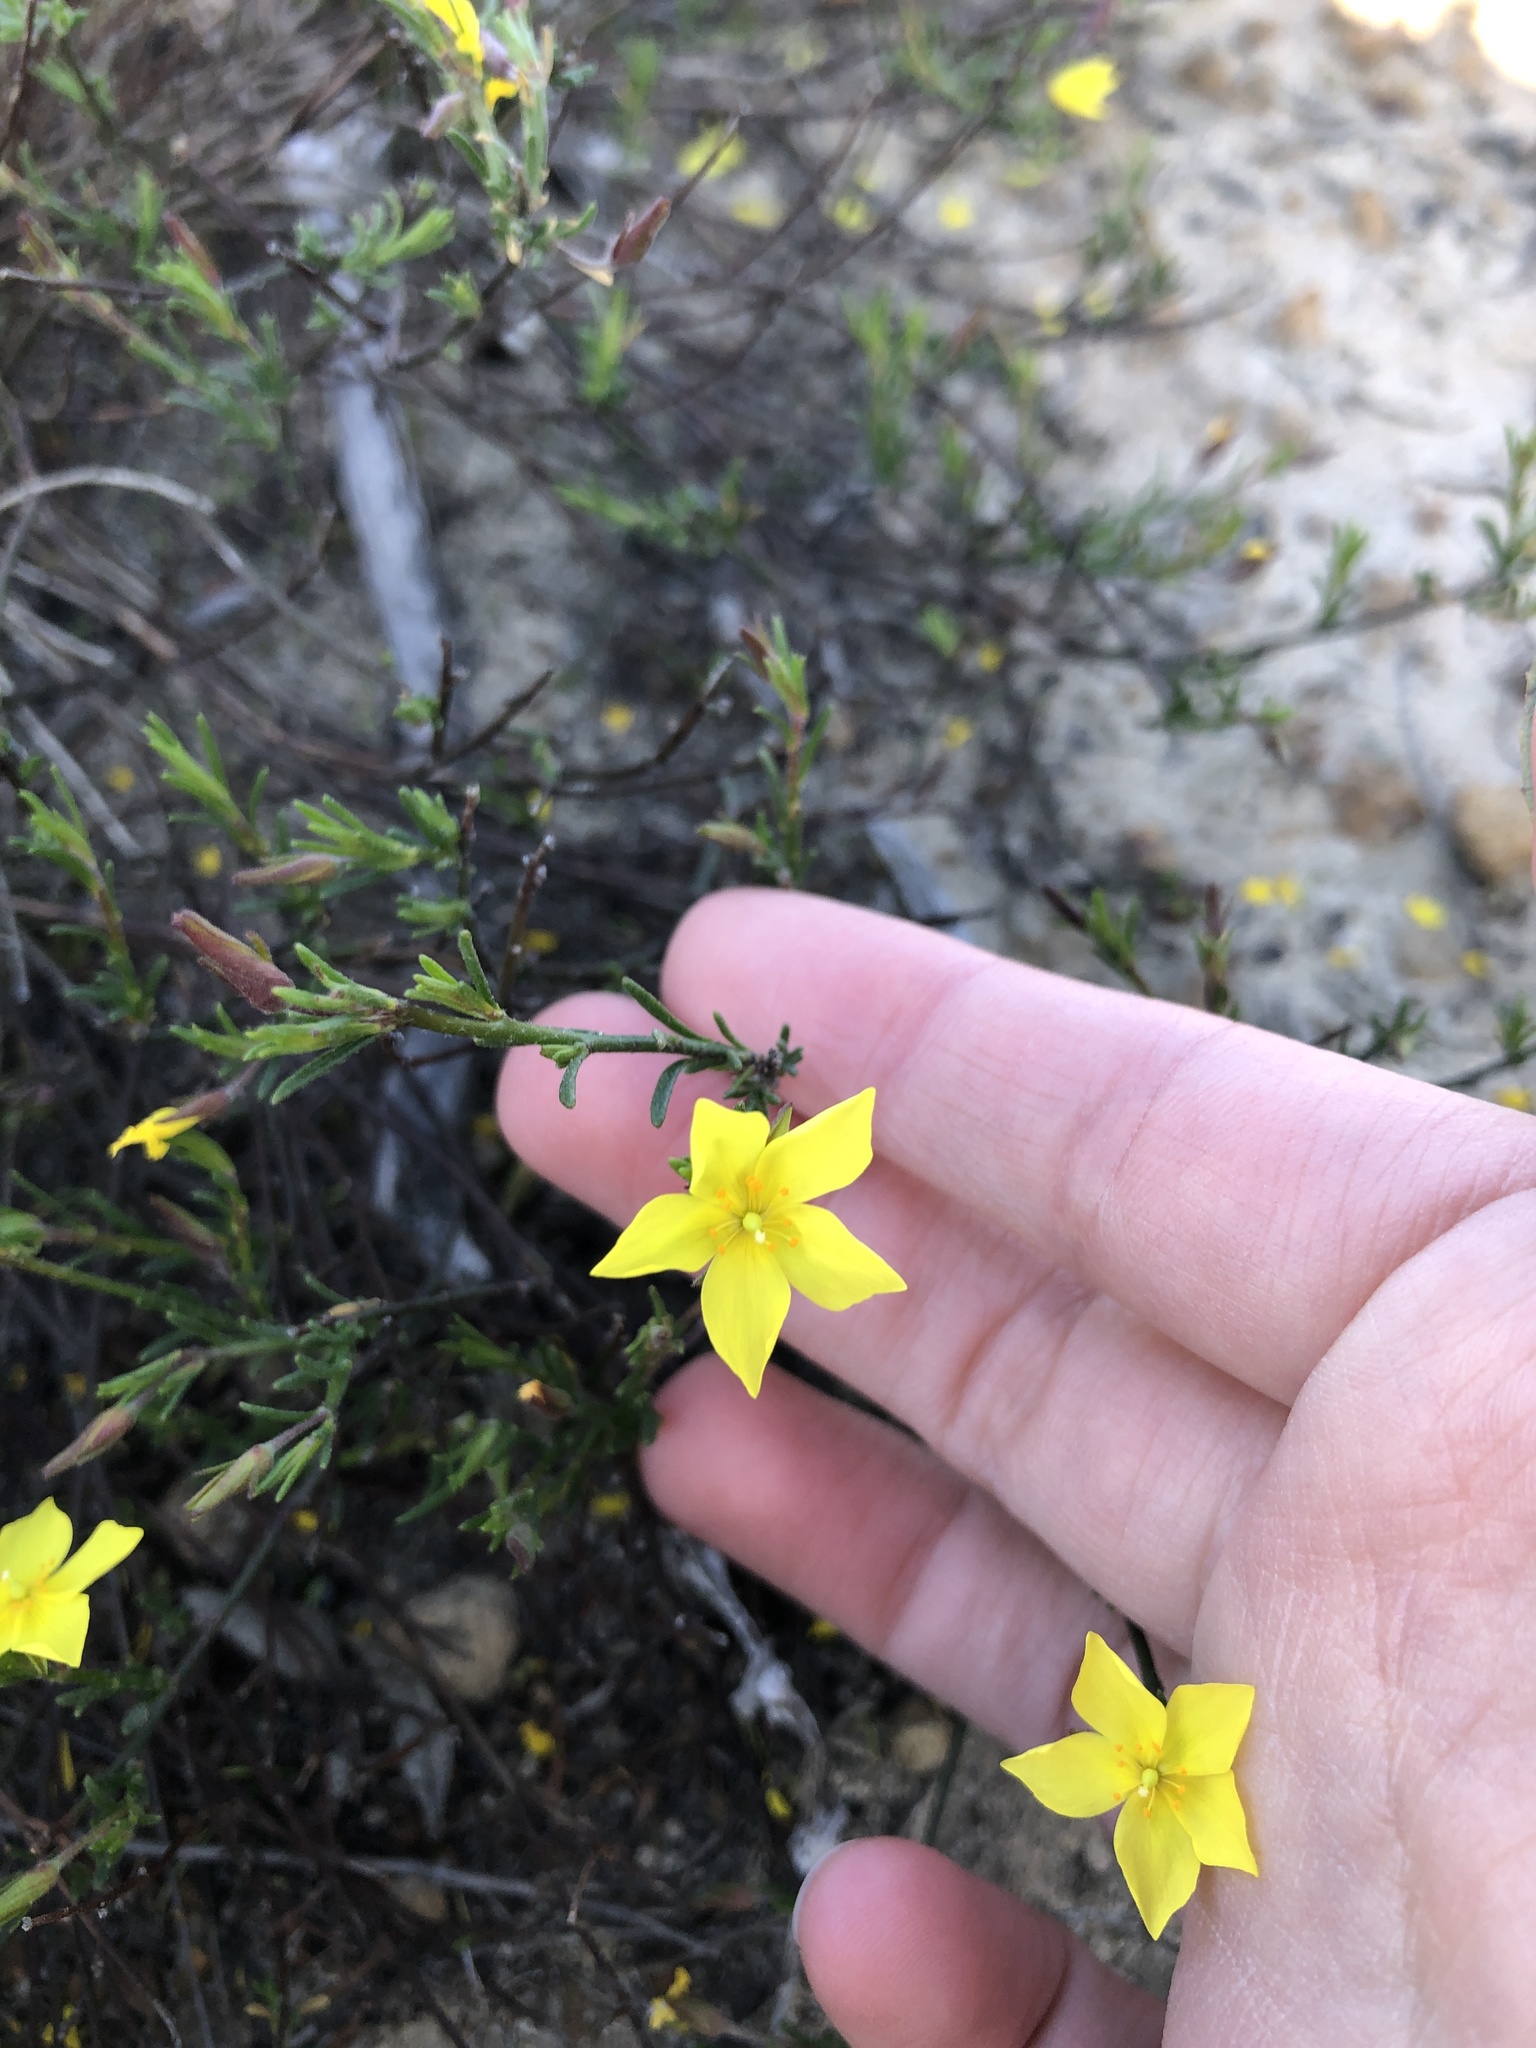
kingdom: Plantae
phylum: Tracheophyta
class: Magnoliopsida
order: Malvales
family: Cistaceae
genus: Crocanthemum
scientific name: Crocanthemum scoparium
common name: Broom-rose
